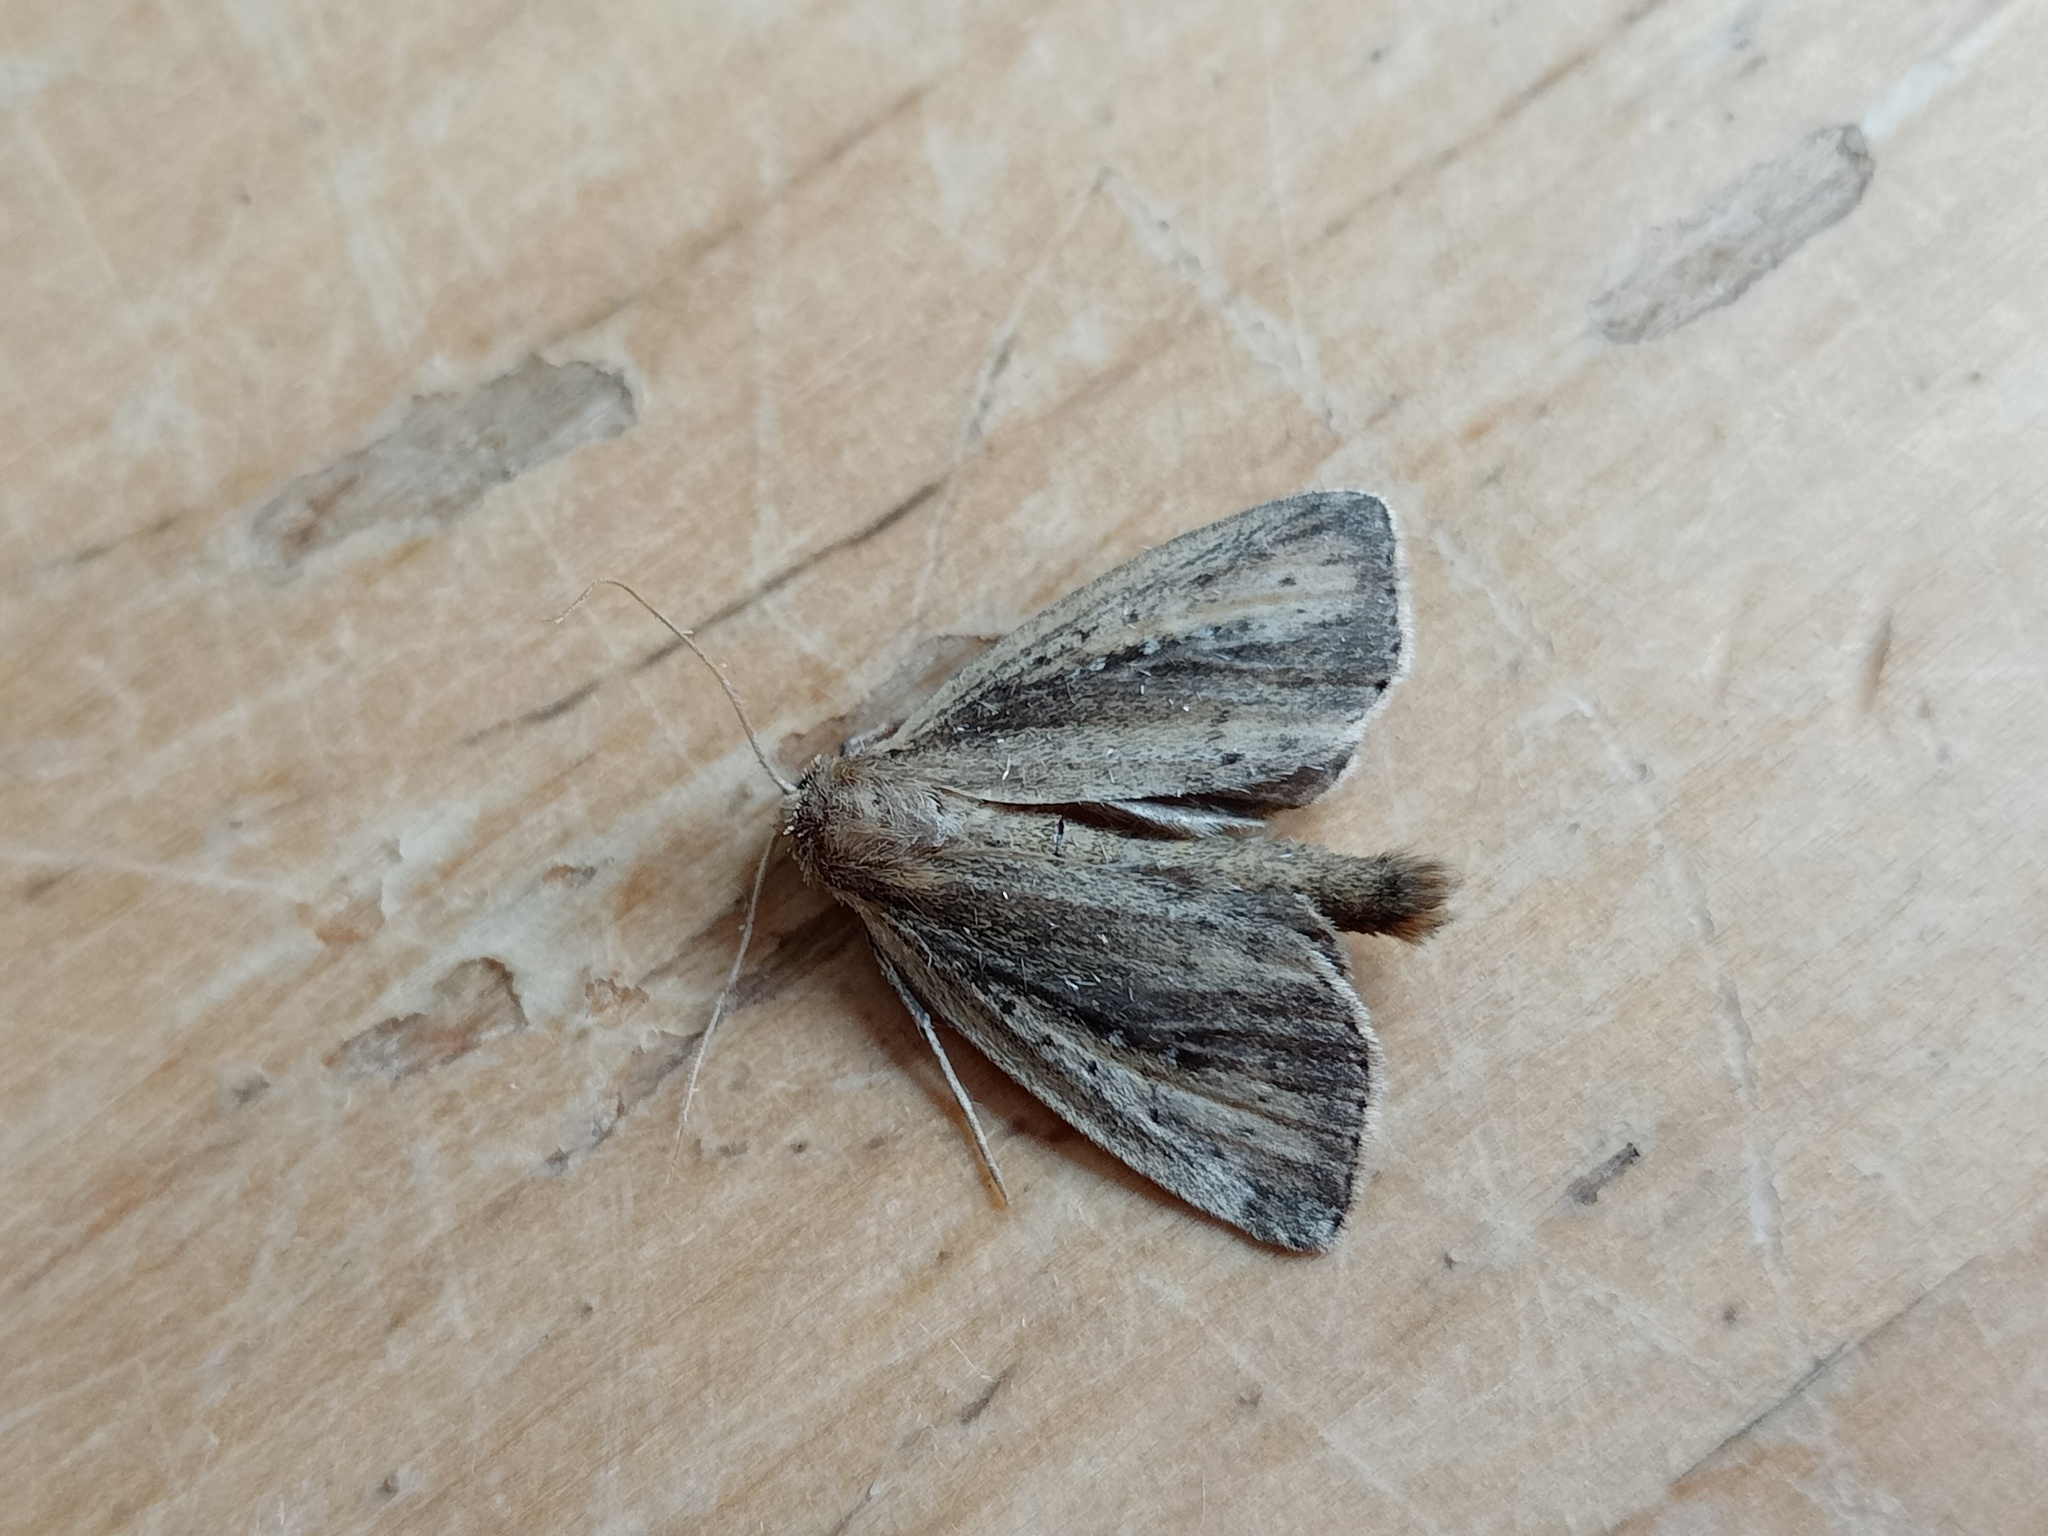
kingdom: Animalia
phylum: Arthropoda
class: Insecta
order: Lepidoptera
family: Noctuidae
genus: Archanara
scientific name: Archanara neurica
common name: White-mantled wainscot
